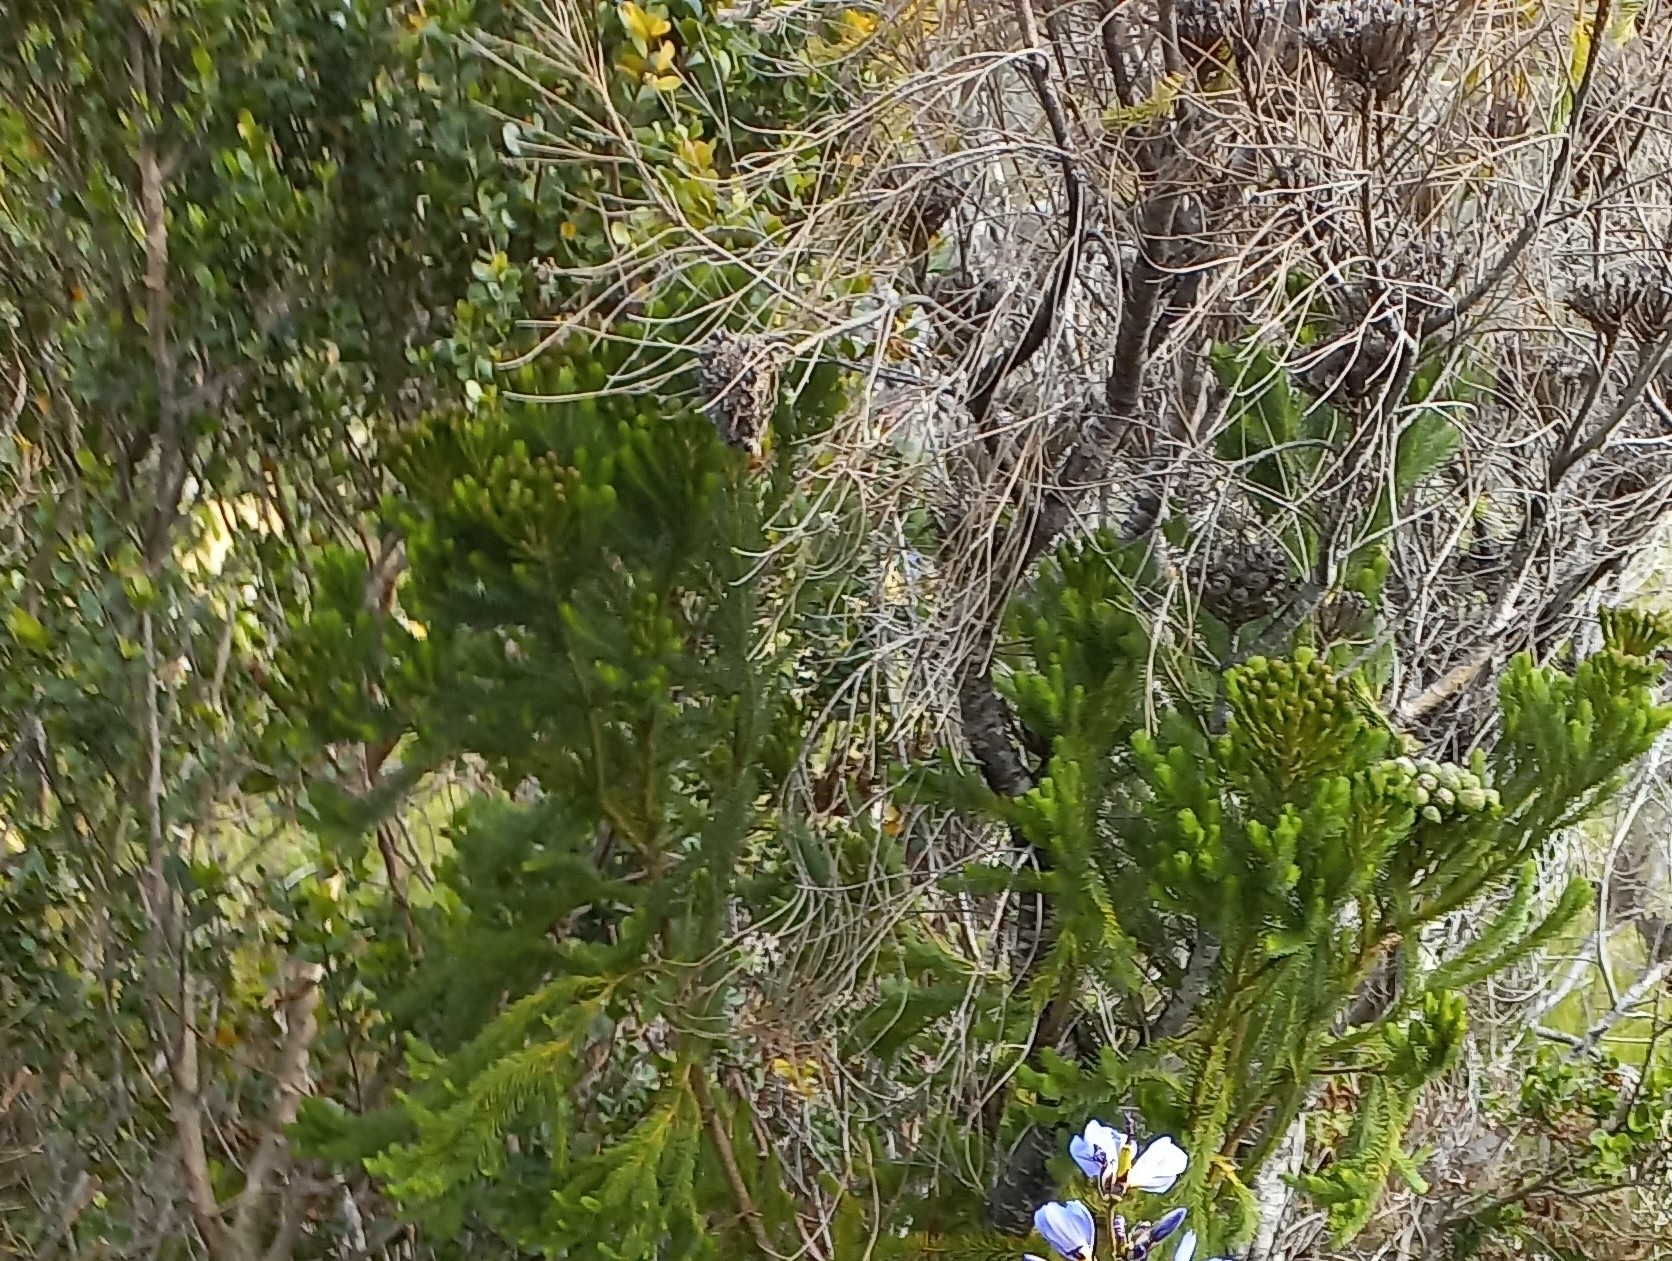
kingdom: Plantae
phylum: Tracheophyta
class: Magnoliopsida
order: Bruniales
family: Bruniaceae
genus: Berzelia
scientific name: Berzelia albiflora
